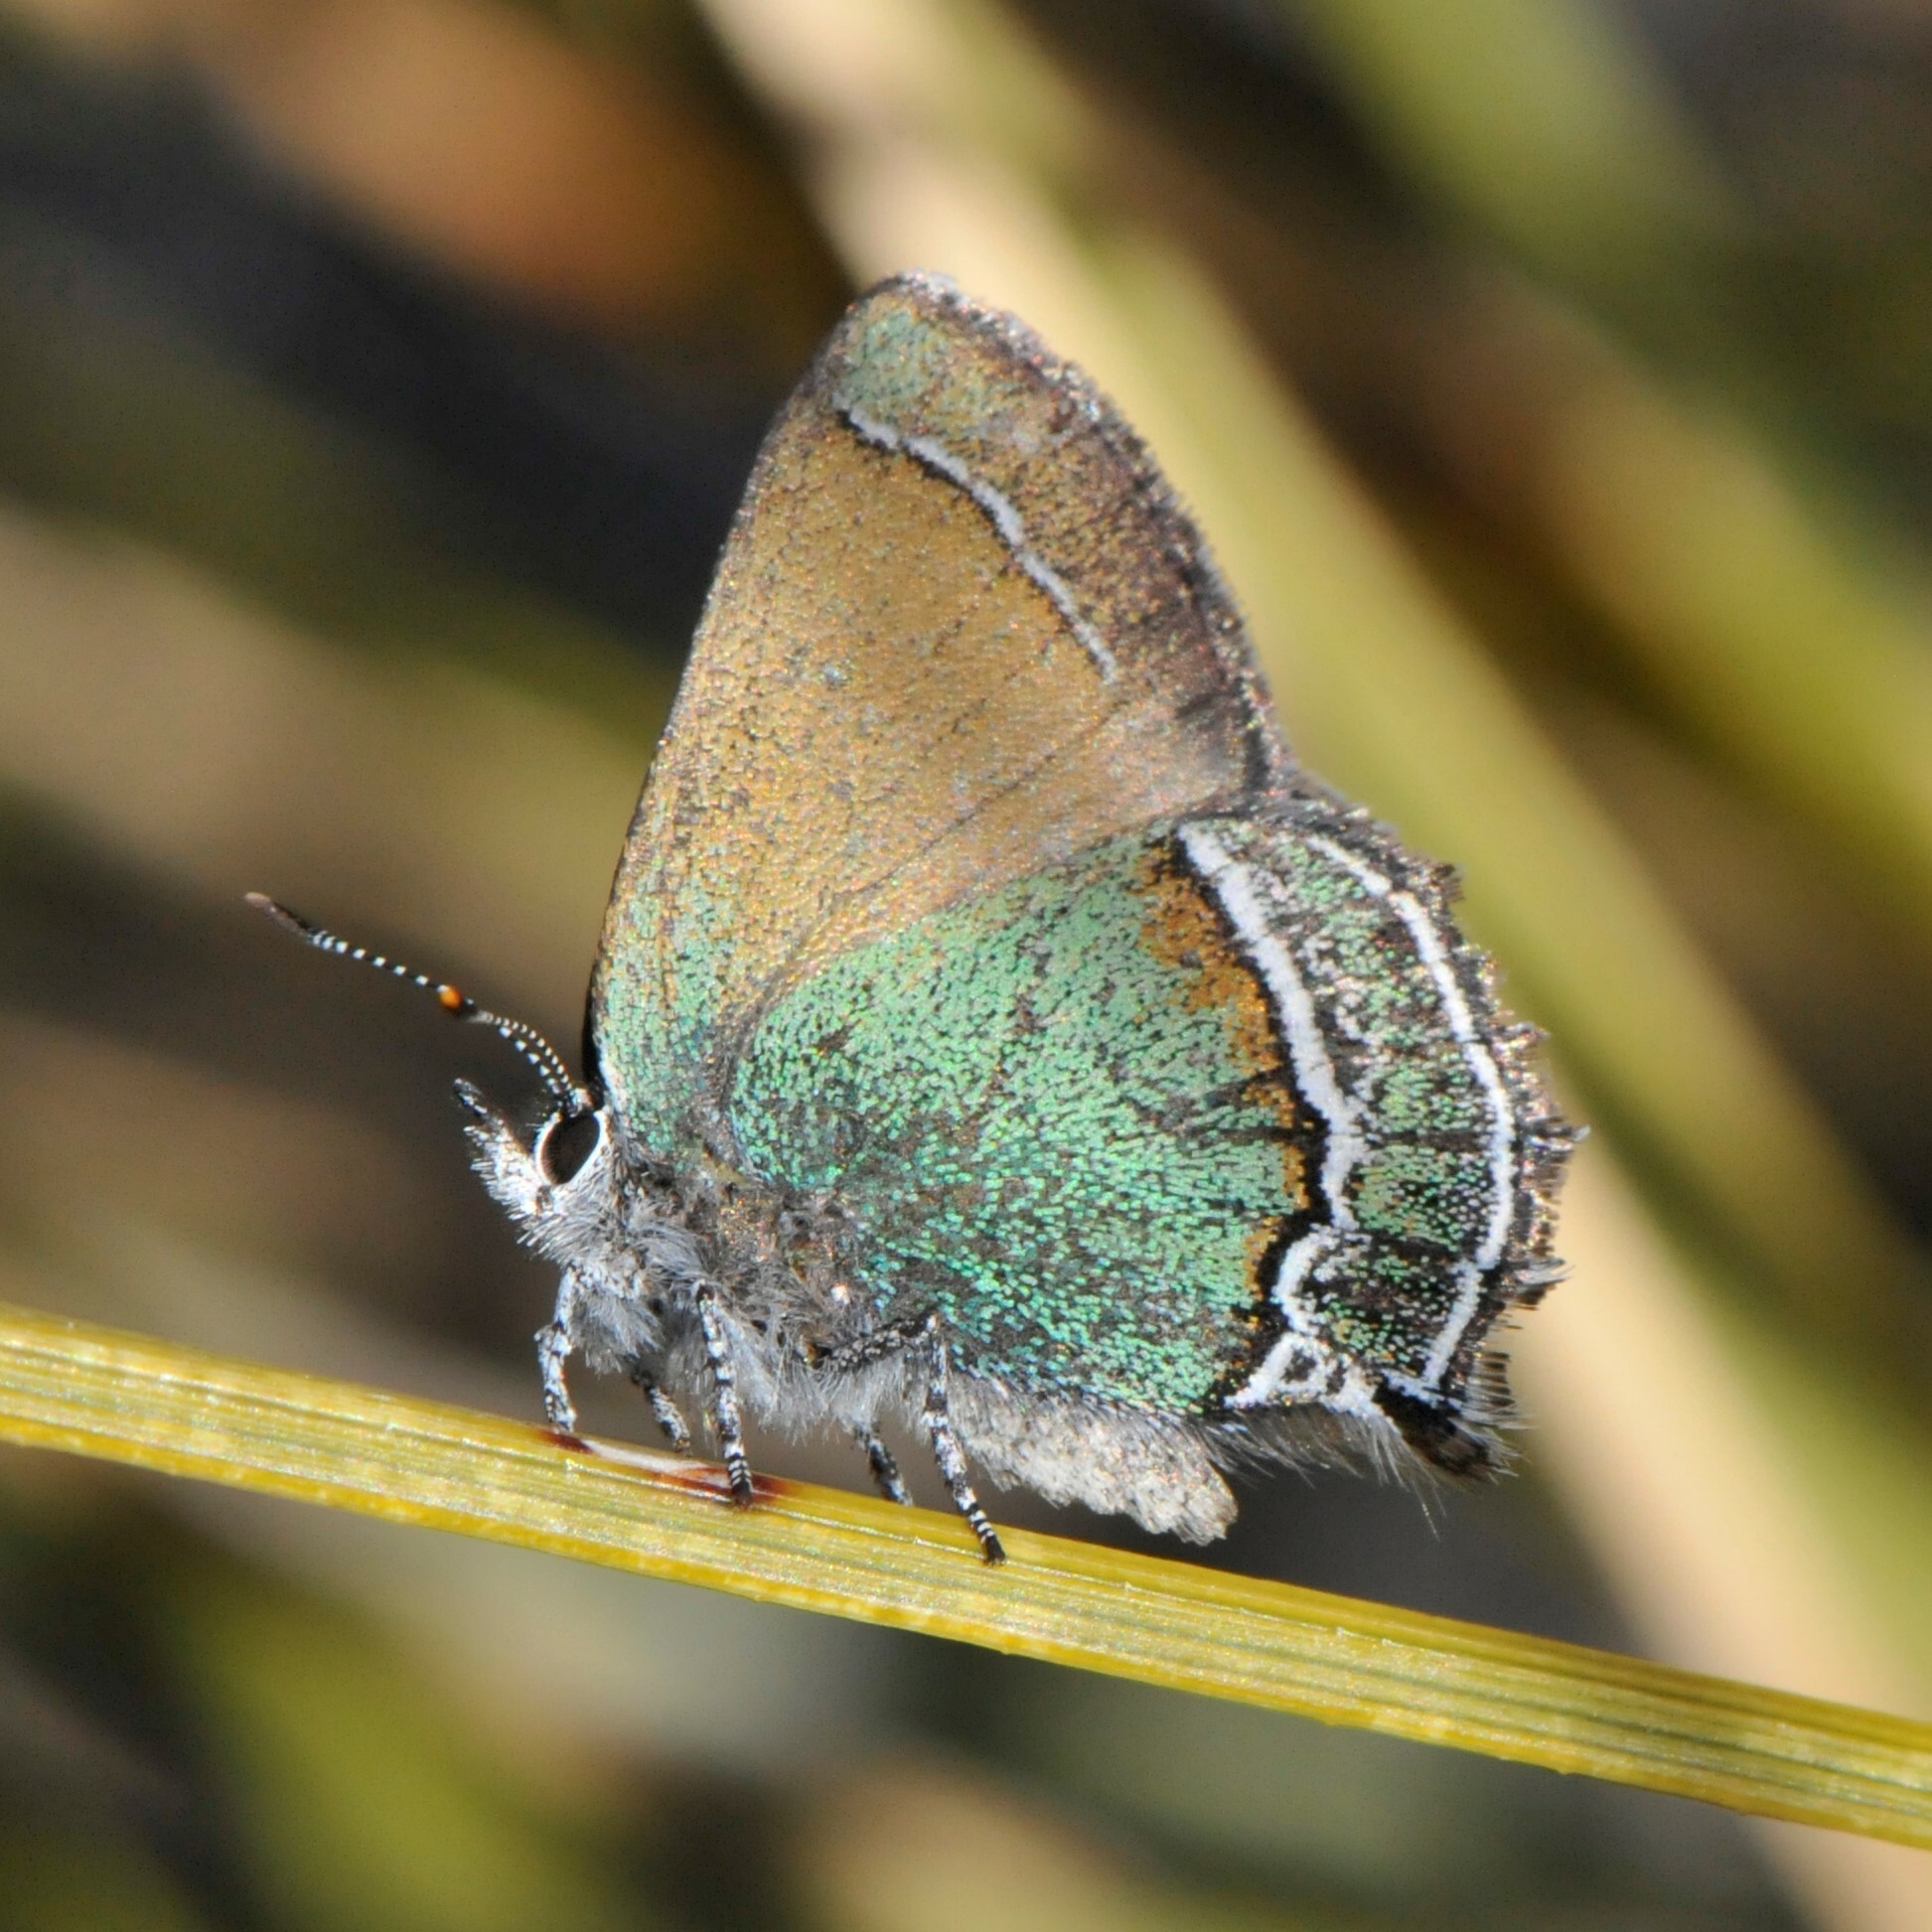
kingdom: Animalia
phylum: Arthropoda
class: Insecta
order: Lepidoptera
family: Lycaenidae
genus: Sandia
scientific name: Sandia mcfarlandi
